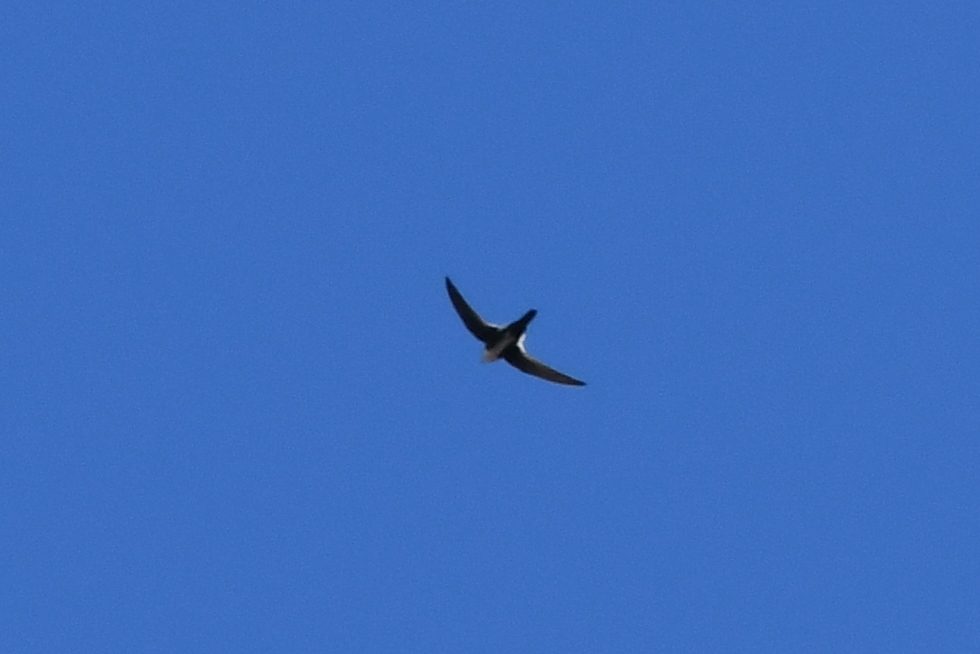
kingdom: Animalia
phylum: Chordata
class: Aves
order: Apodiformes
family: Apodidae
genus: Aeronautes
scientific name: Aeronautes saxatalis
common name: White-throated swift
